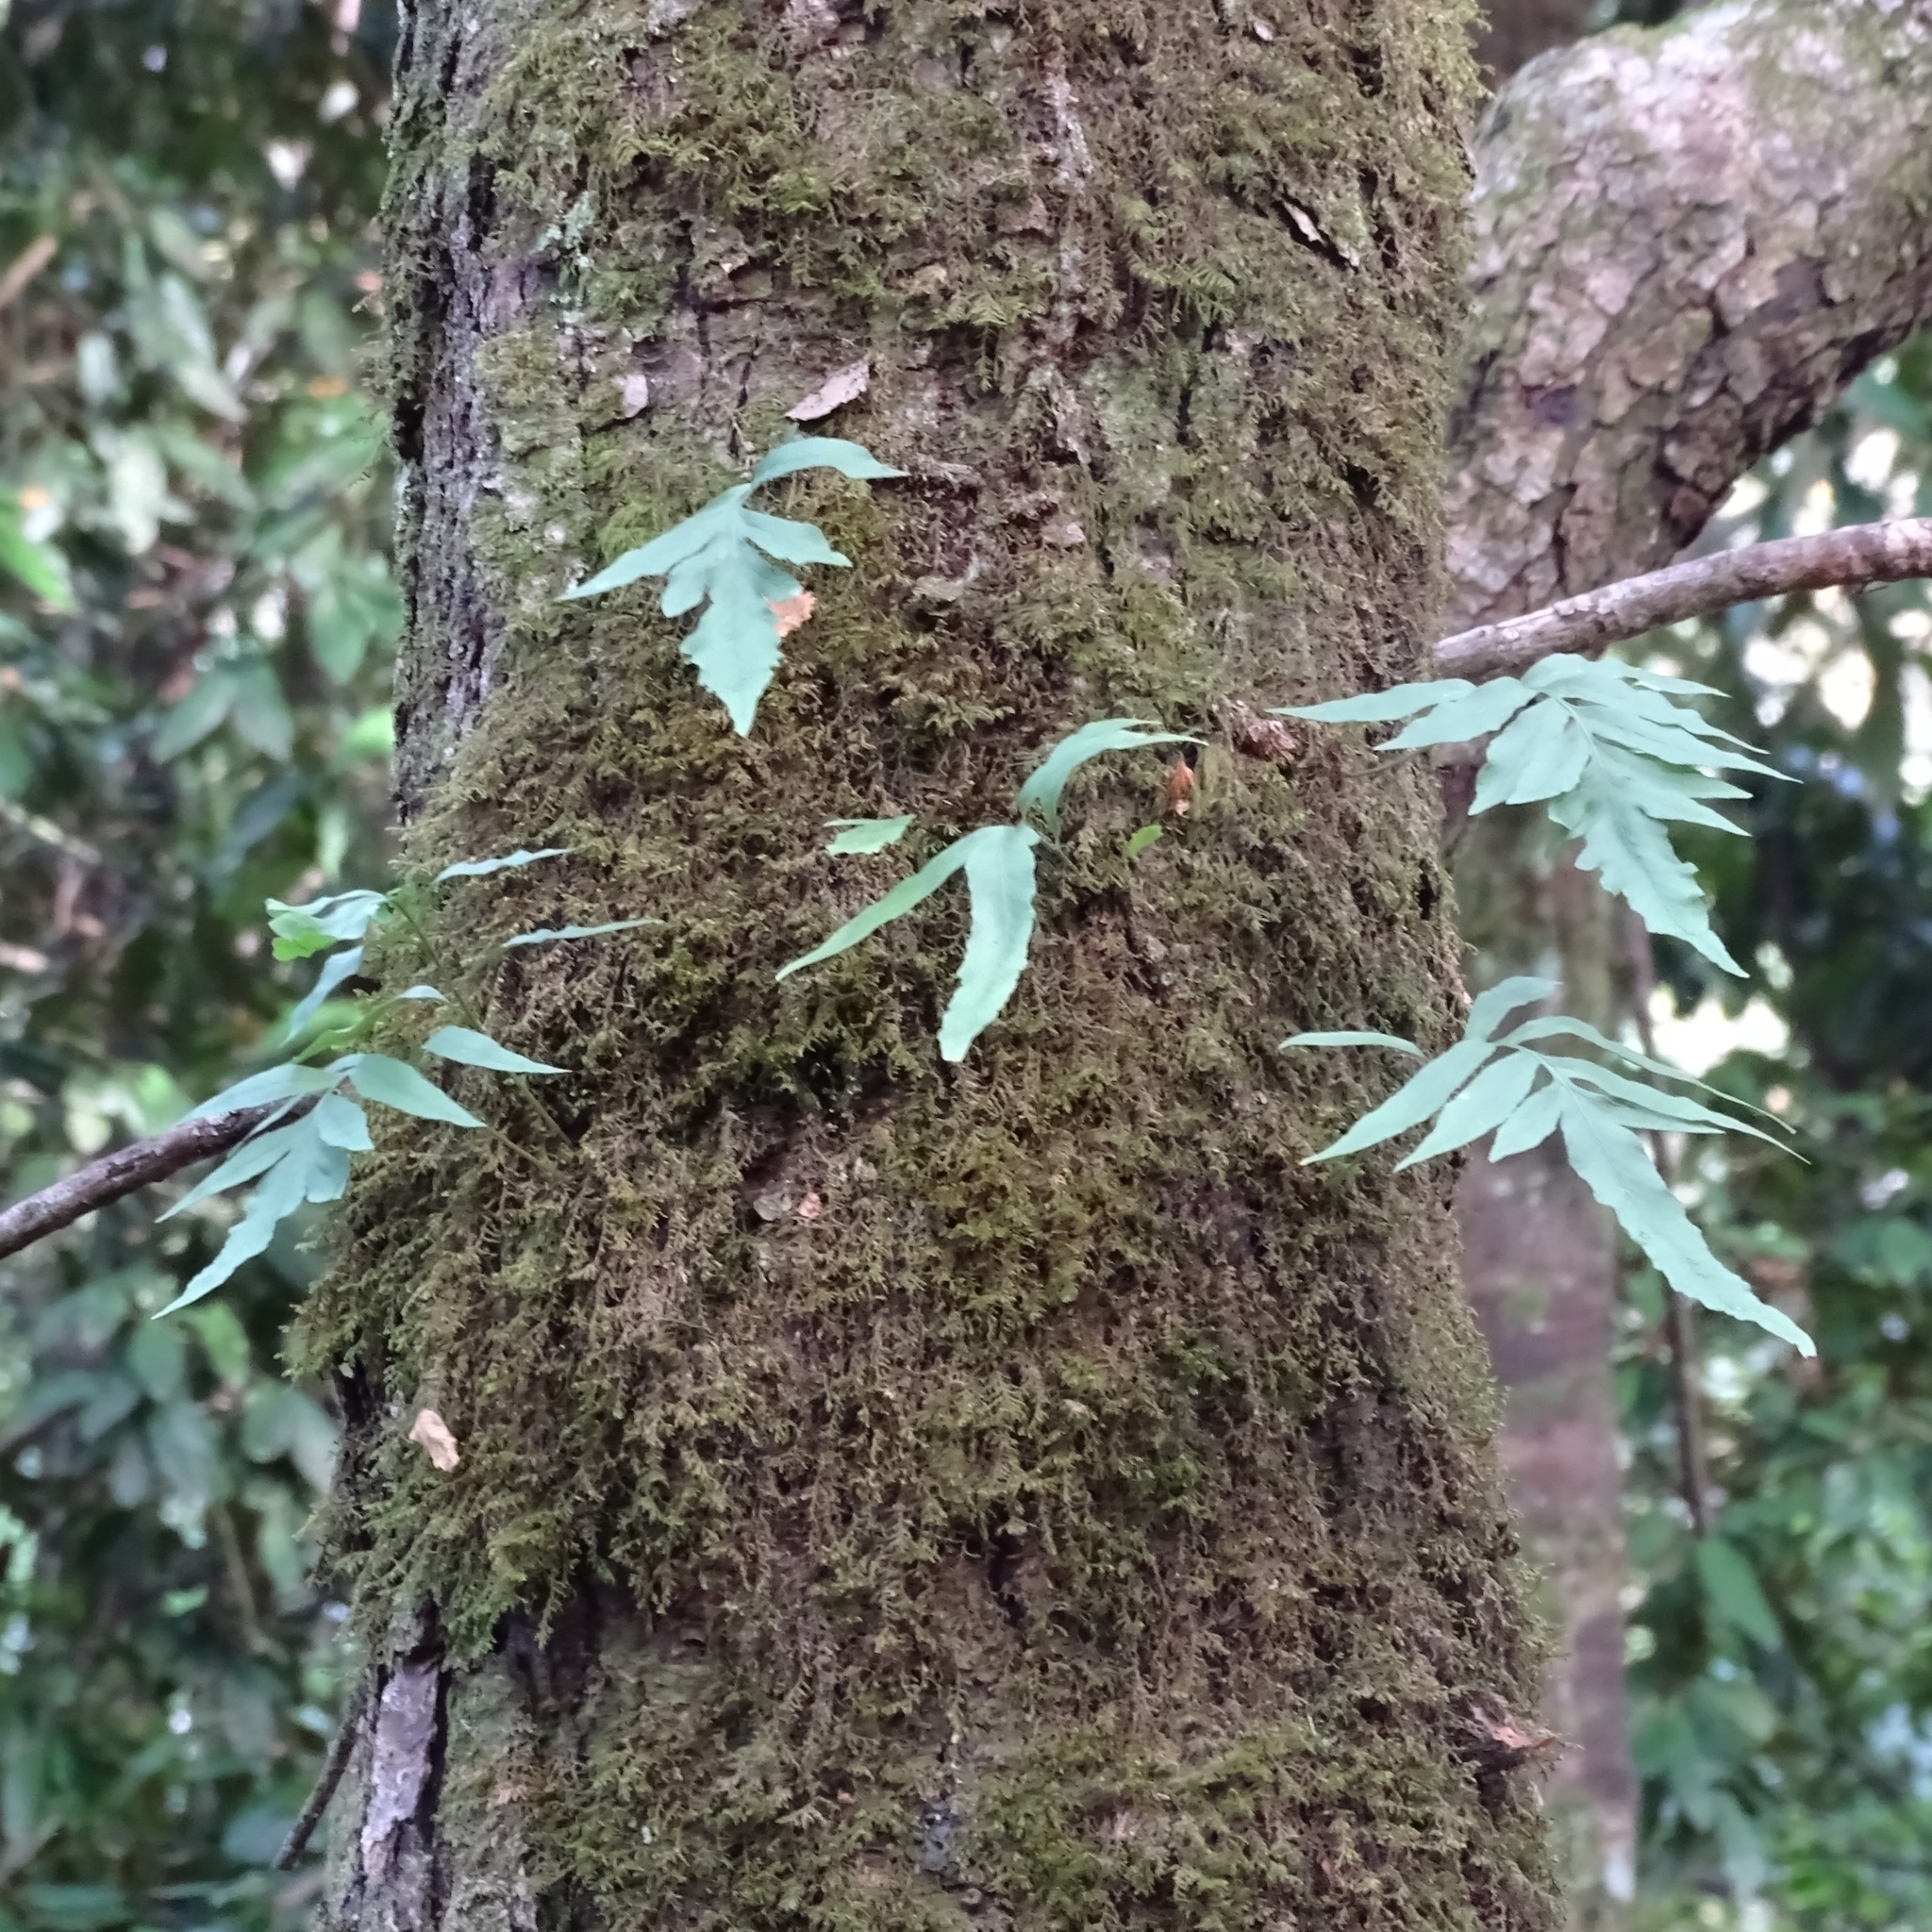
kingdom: Plantae
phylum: Tracheophyta
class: Polypodiopsida
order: Polypodiales
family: Polypodiaceae
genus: Synammia
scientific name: Synammia feuillei
